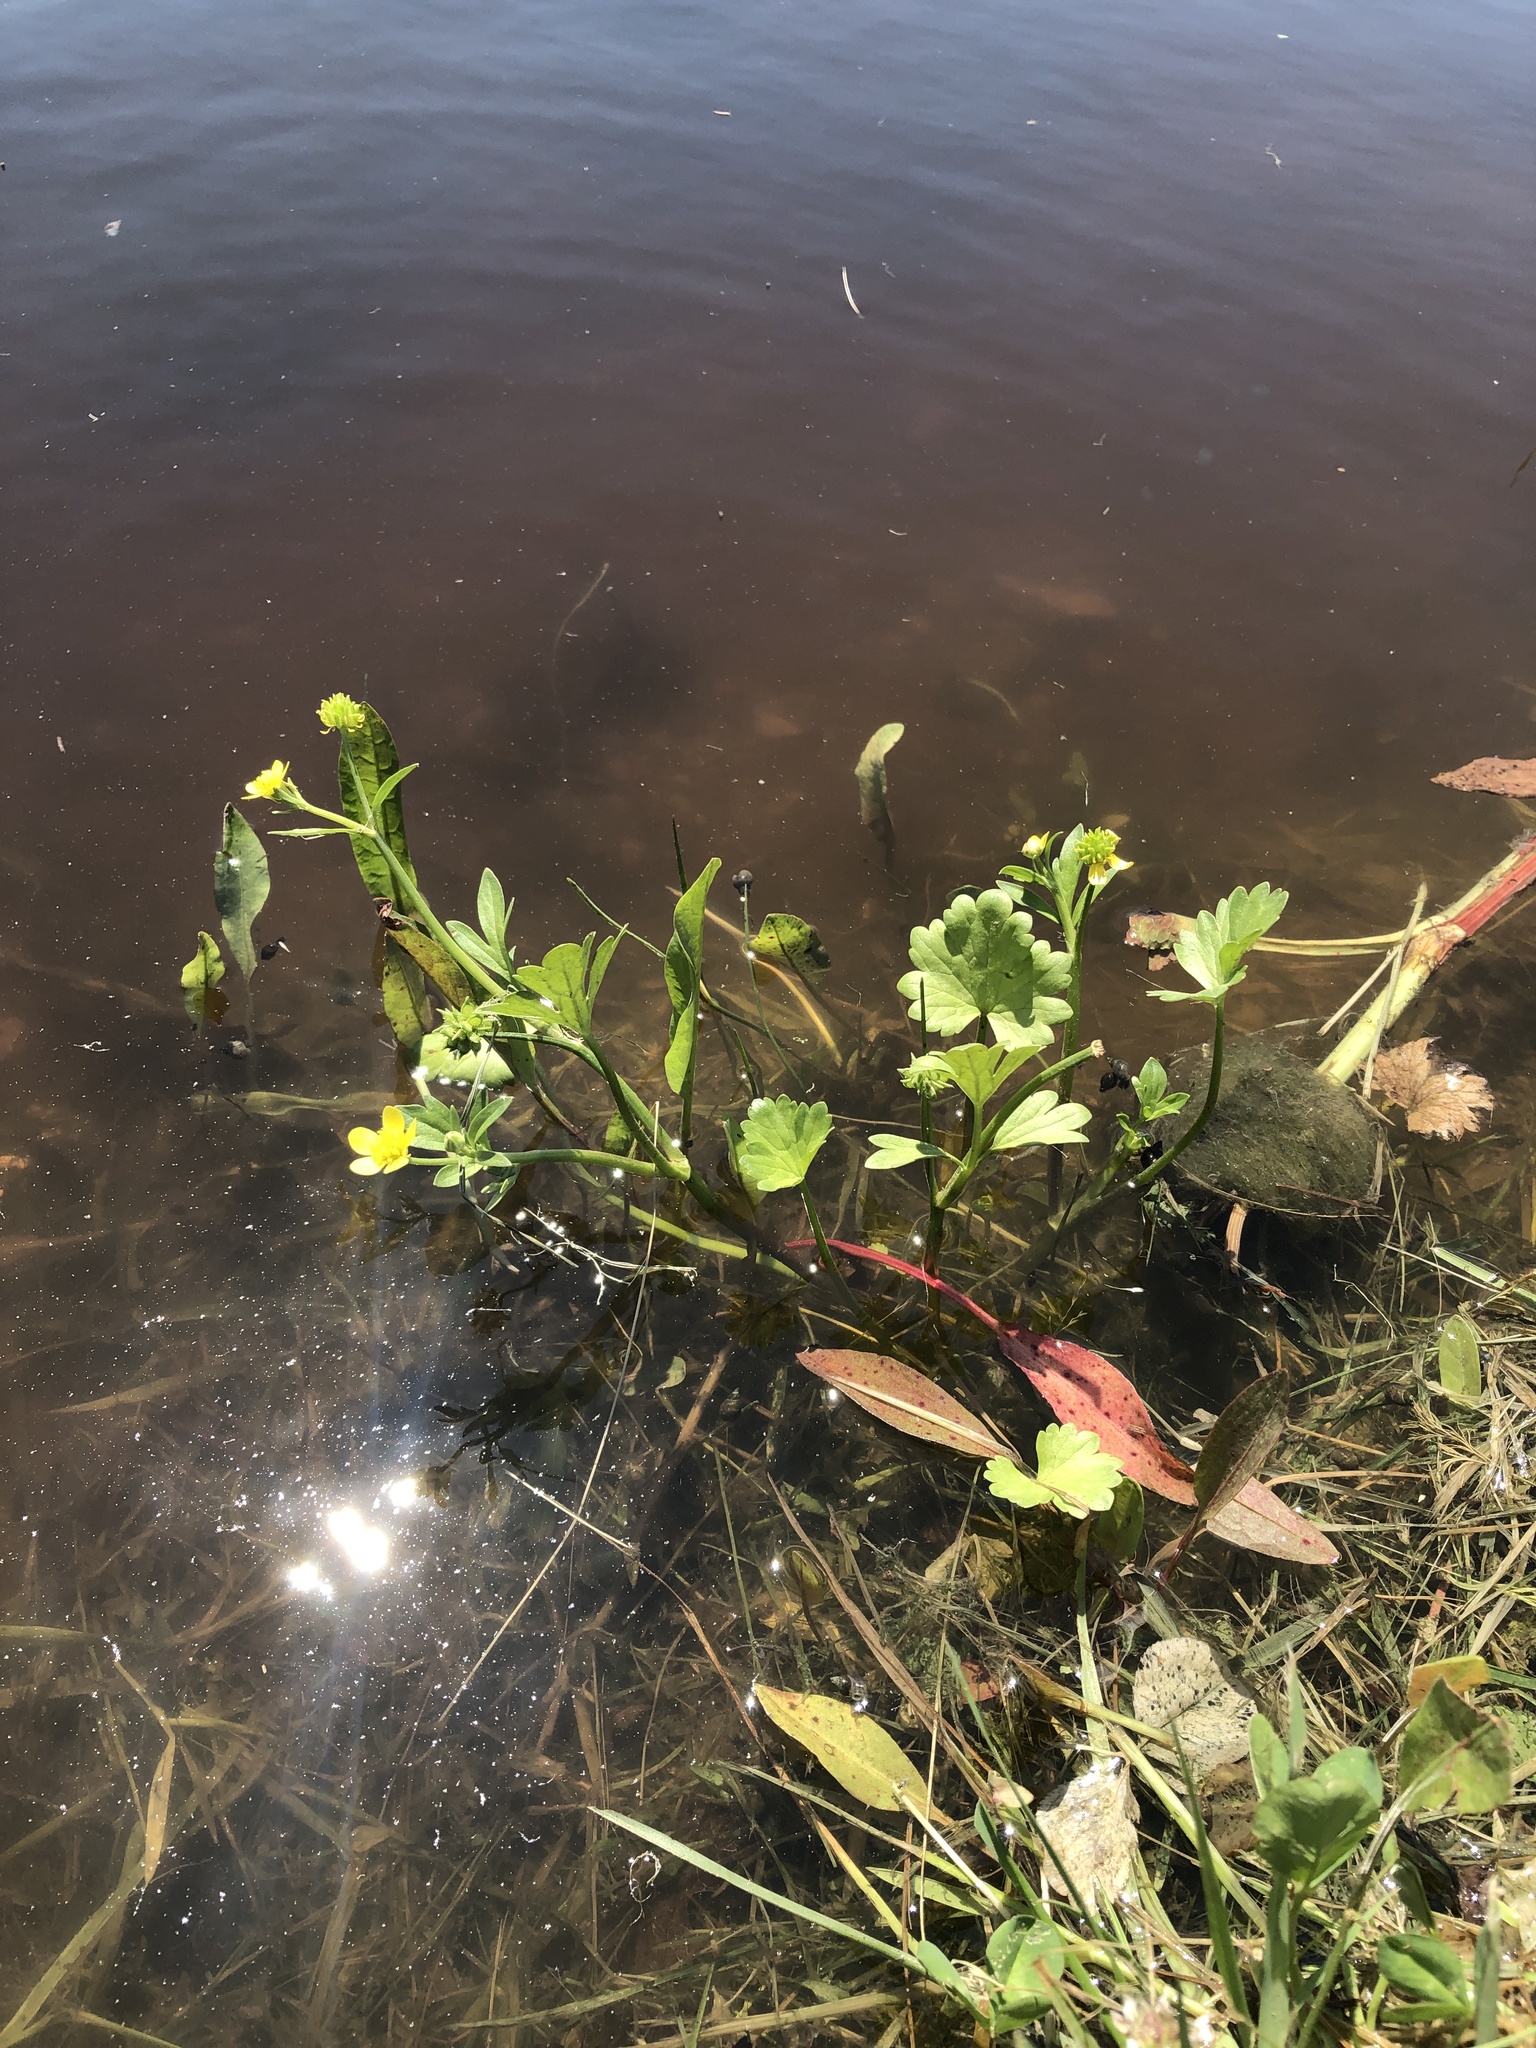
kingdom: Plantae
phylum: Tracheophyta
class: Magnoliopsida
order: Ranunculales
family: Ranunculaceae
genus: Ranunculus
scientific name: Ranunculus muricatus
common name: Rough-fruited buttercup
